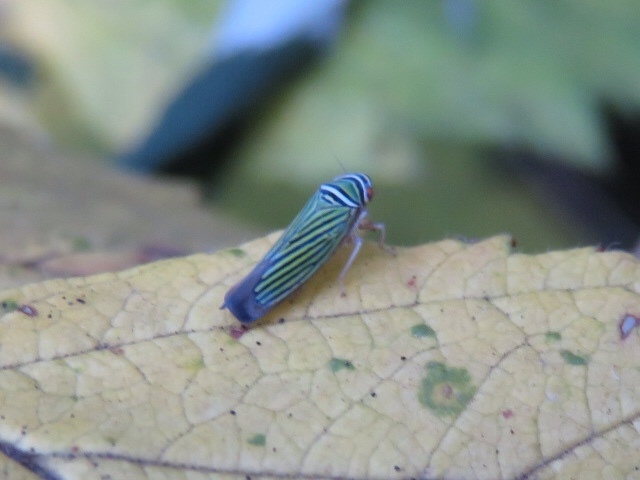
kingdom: Animalia
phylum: Arthropoda
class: Insecta
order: Hemiptera
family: Cicadellidae
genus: Tylozygus
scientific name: Tylozygus bifidus
